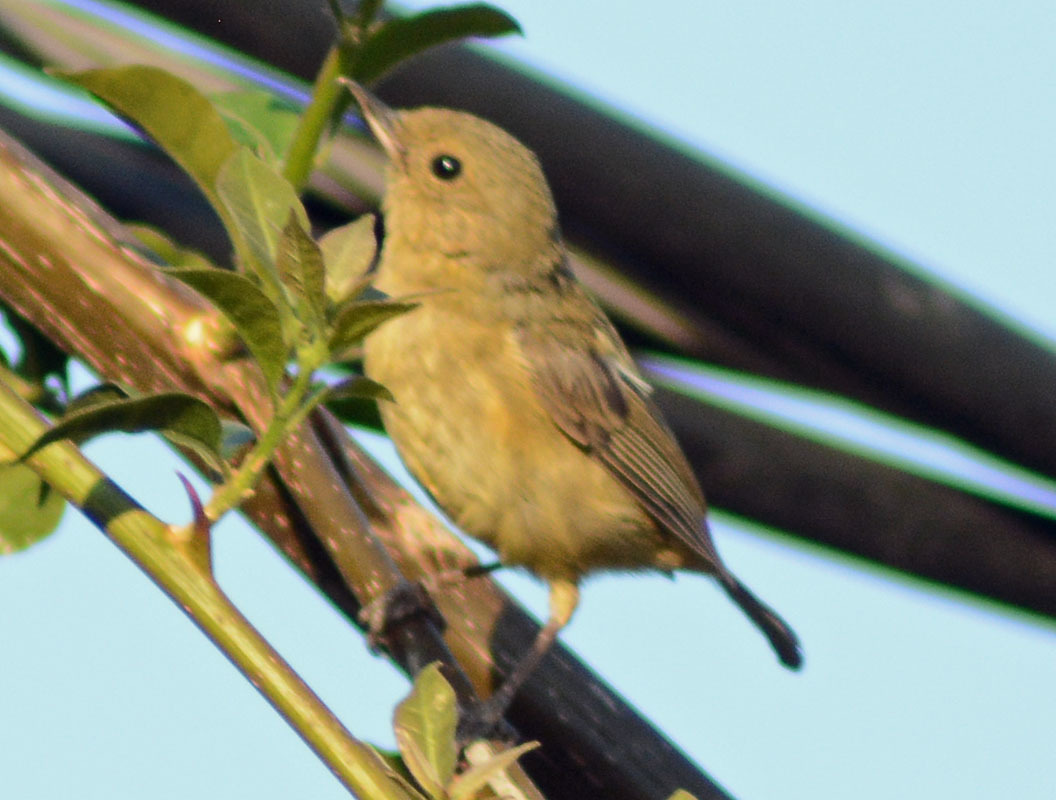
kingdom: Animalia
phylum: Chordata
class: Aves
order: Passeriformes
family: Thraupidae
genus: Diglossa
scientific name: Diglossa baritula
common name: Cinnamon-bellied flowerpiercer
